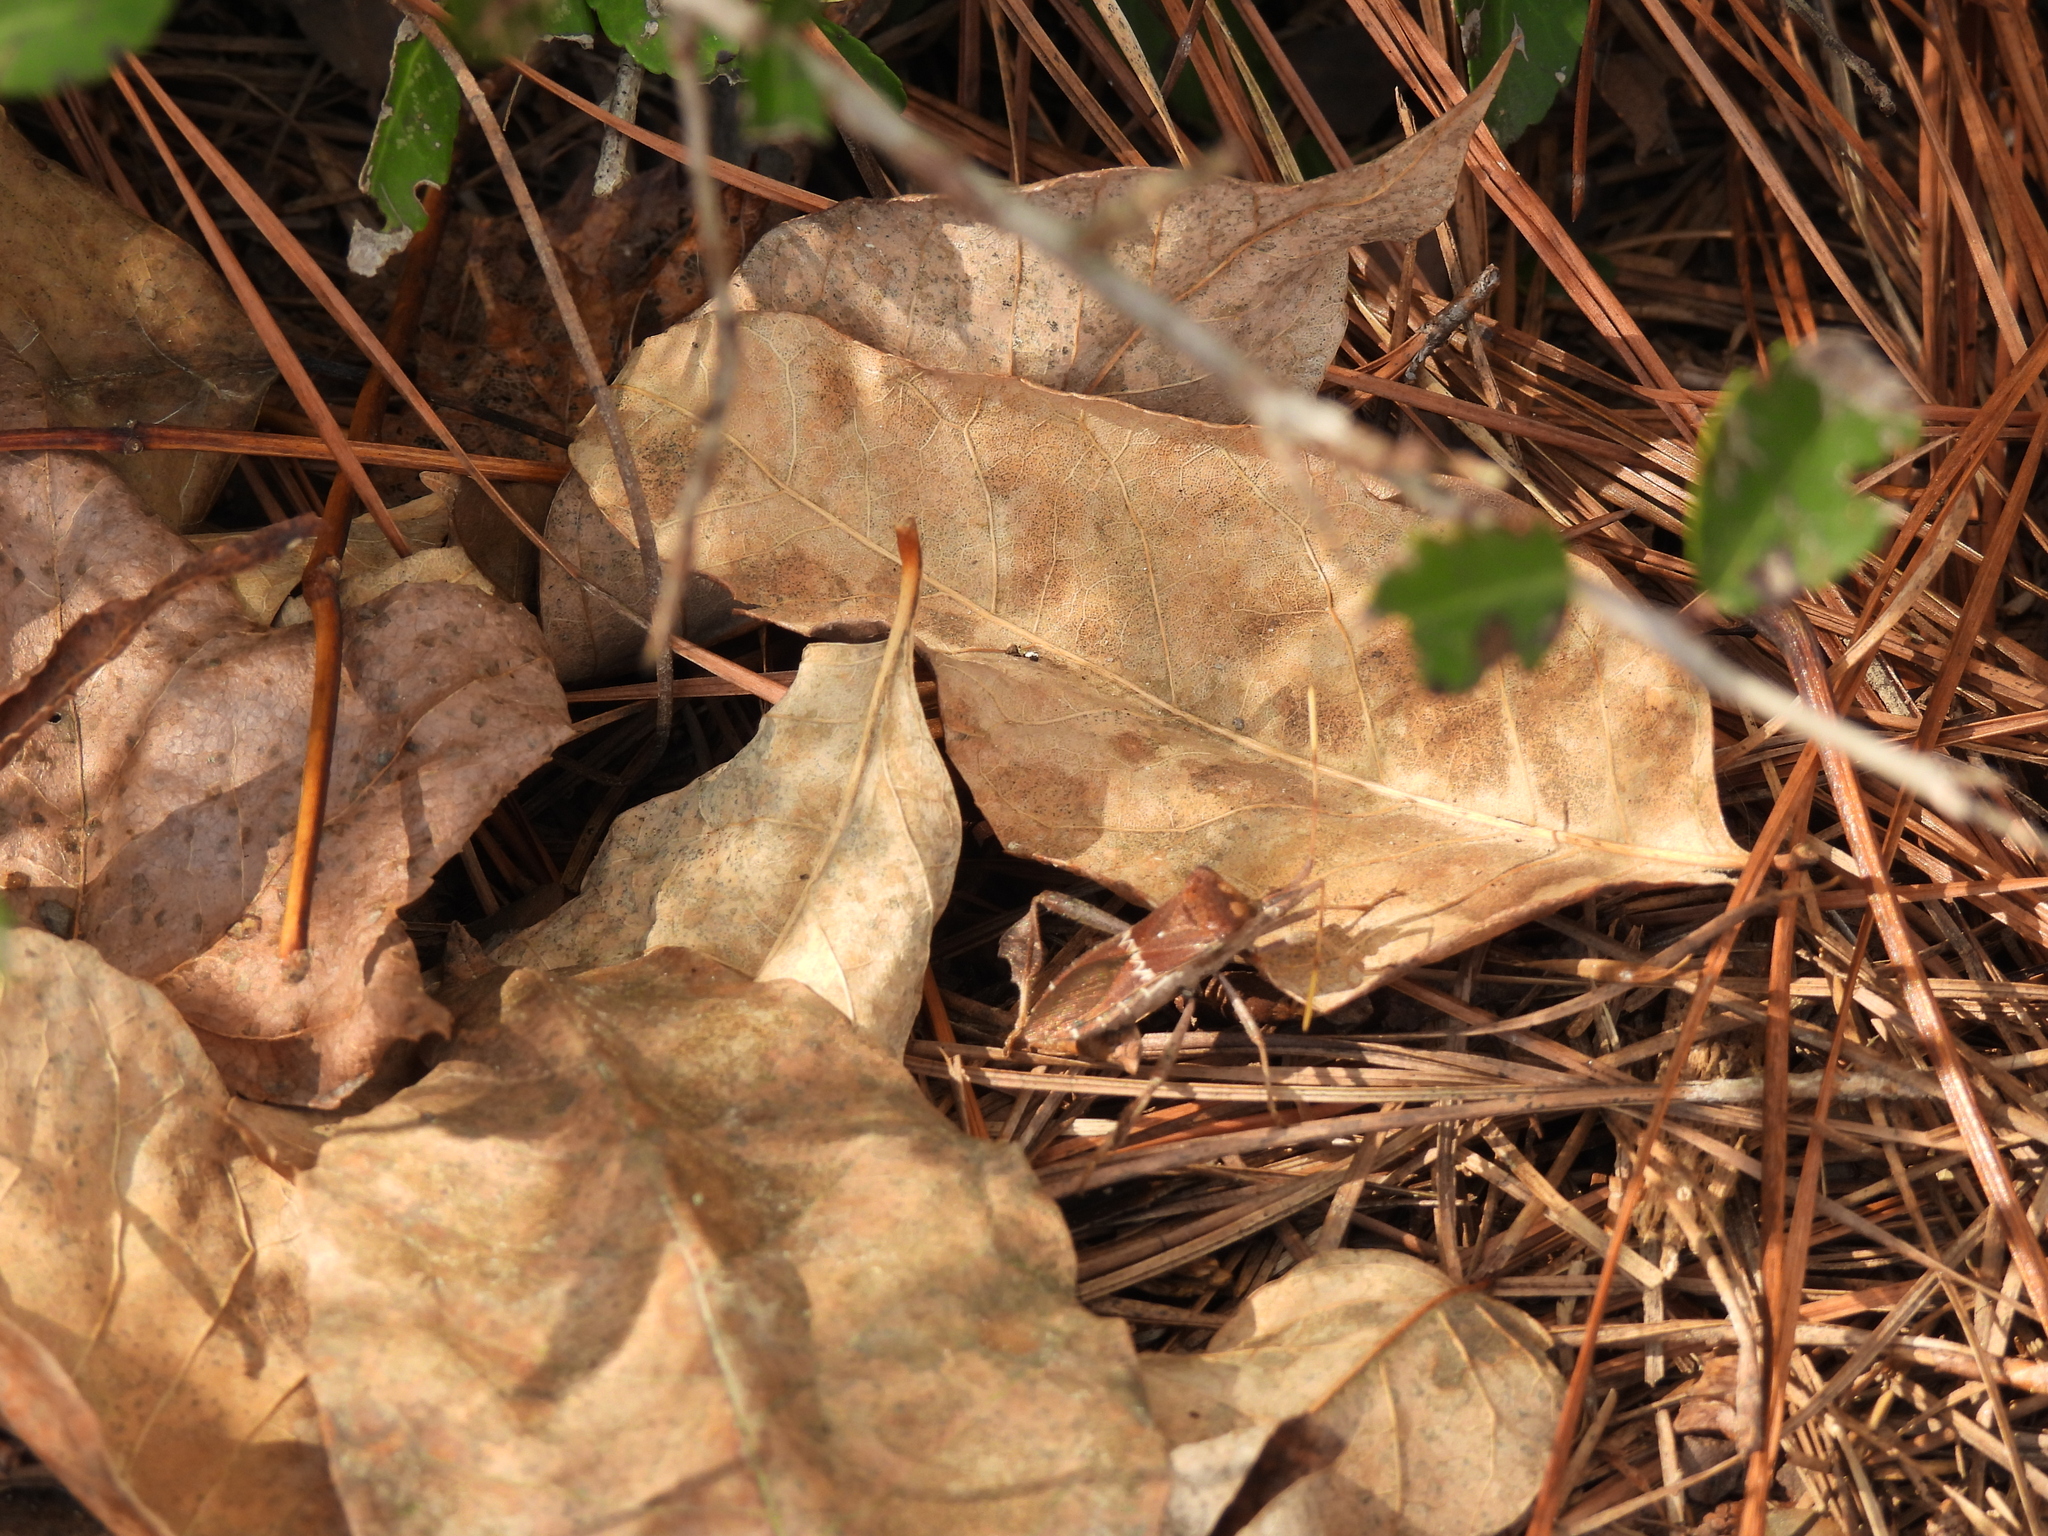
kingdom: Animalia
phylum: Arthropoda
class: Insecta
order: Hemiptera
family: Coreidae
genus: Leptoglossus
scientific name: Leptoglossus zonatus
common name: Large-legged bug
